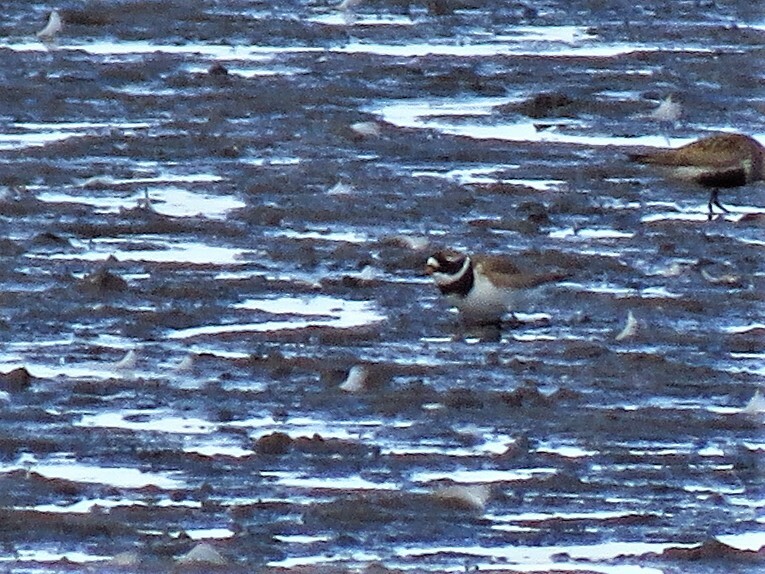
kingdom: Animalia
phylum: Chordata
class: Aves
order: Charadriiformes
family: Charadriidae
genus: Charadrius
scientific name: Charadrius hiaticula
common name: Common ringed plover
